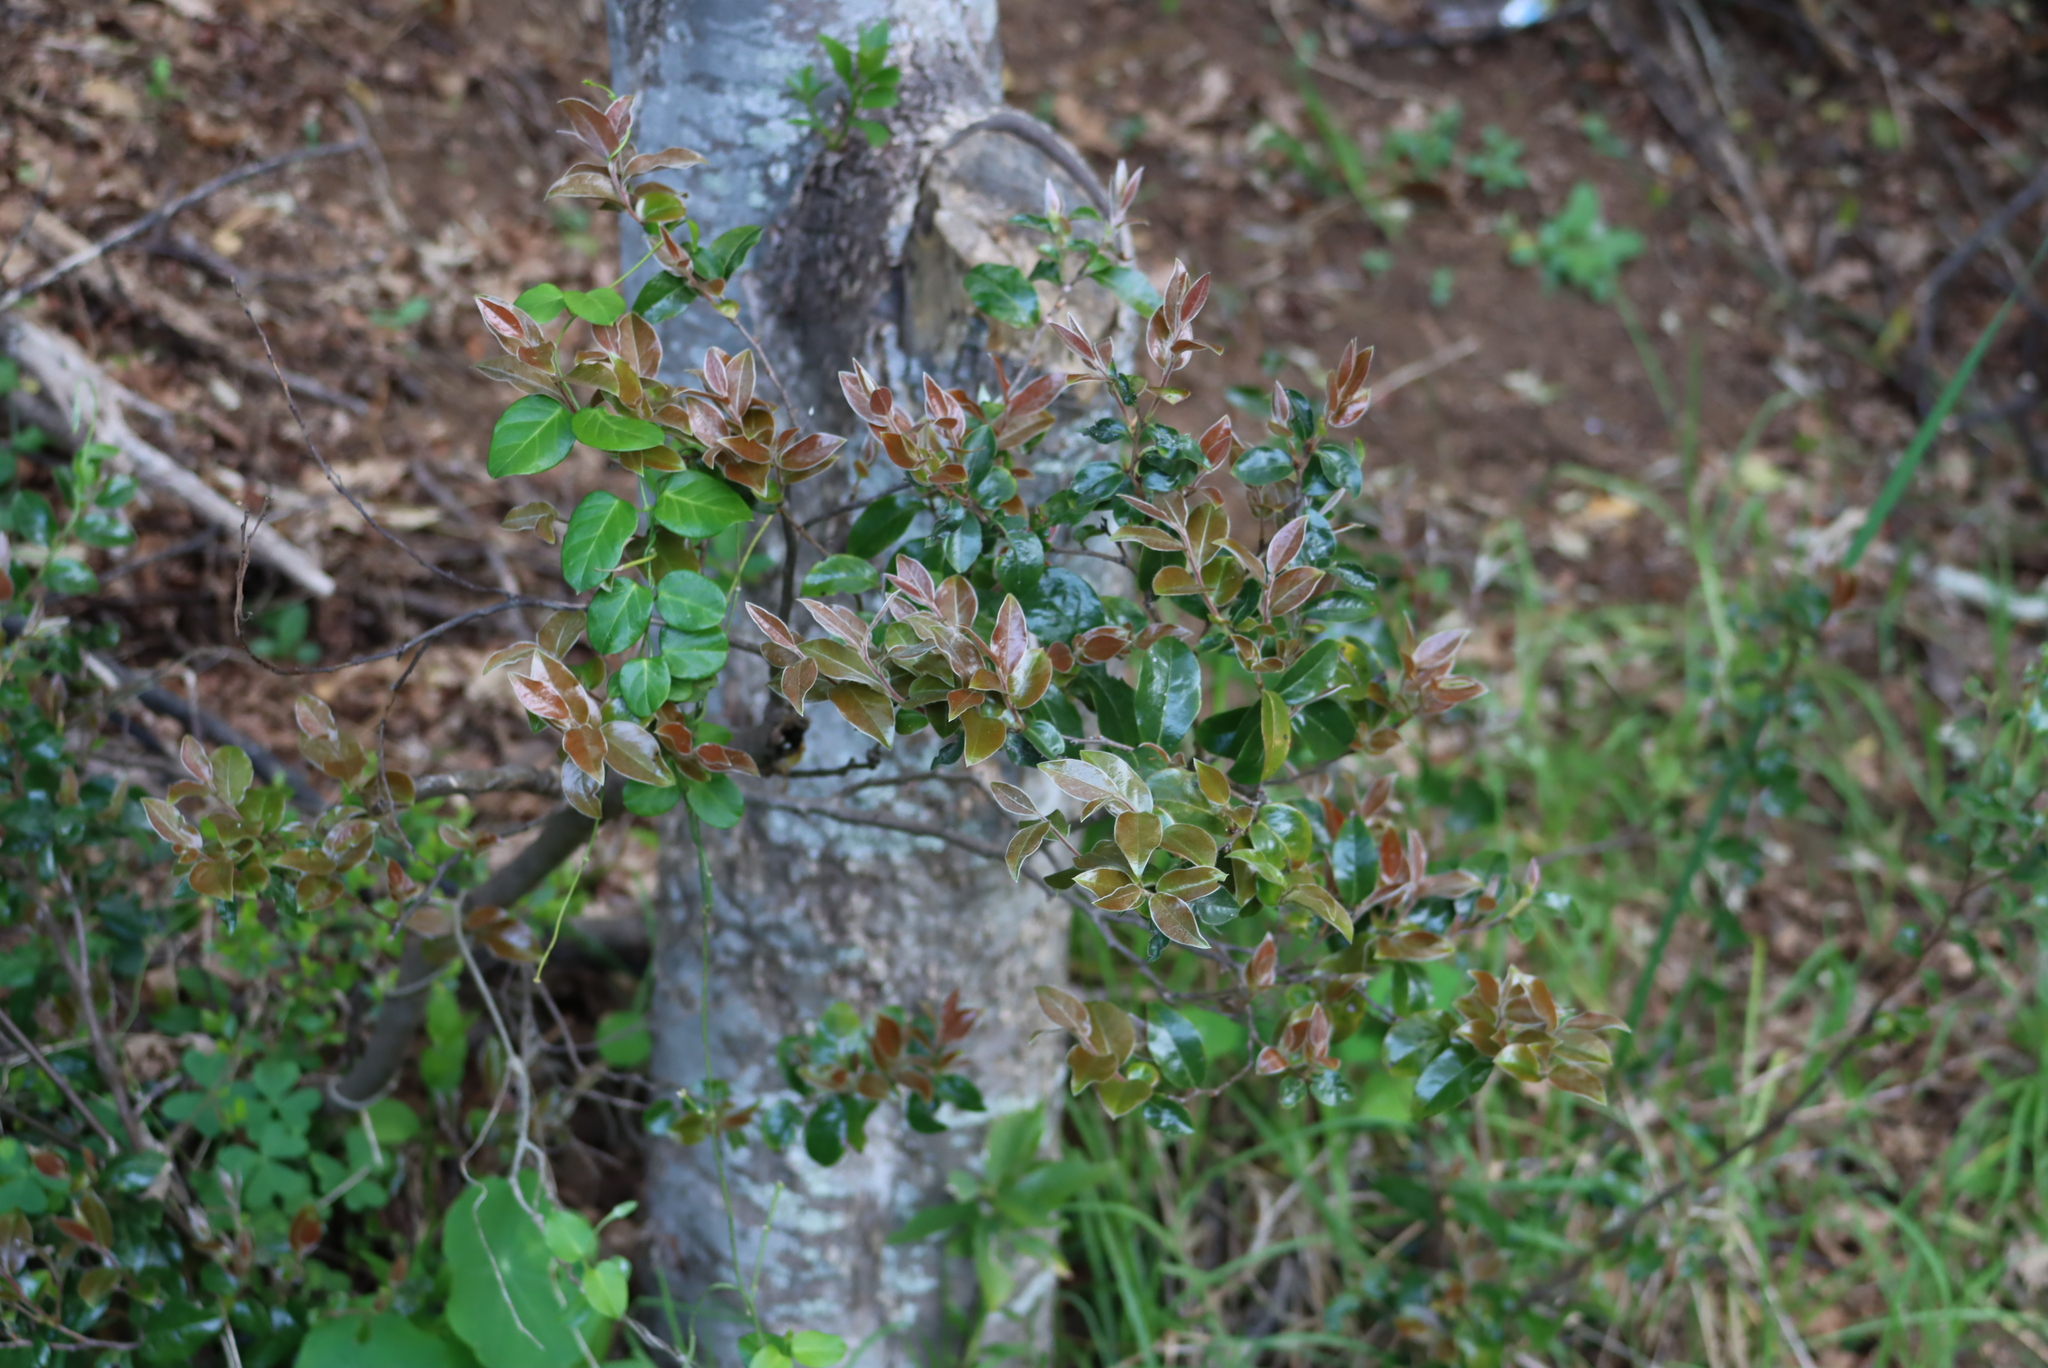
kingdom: Plantae
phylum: Tracheophyta
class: Magnoliopsida
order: Ericales
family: Ebenaceae
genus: Diospyros
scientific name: Diospyros whyteana
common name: Bladder-nut
